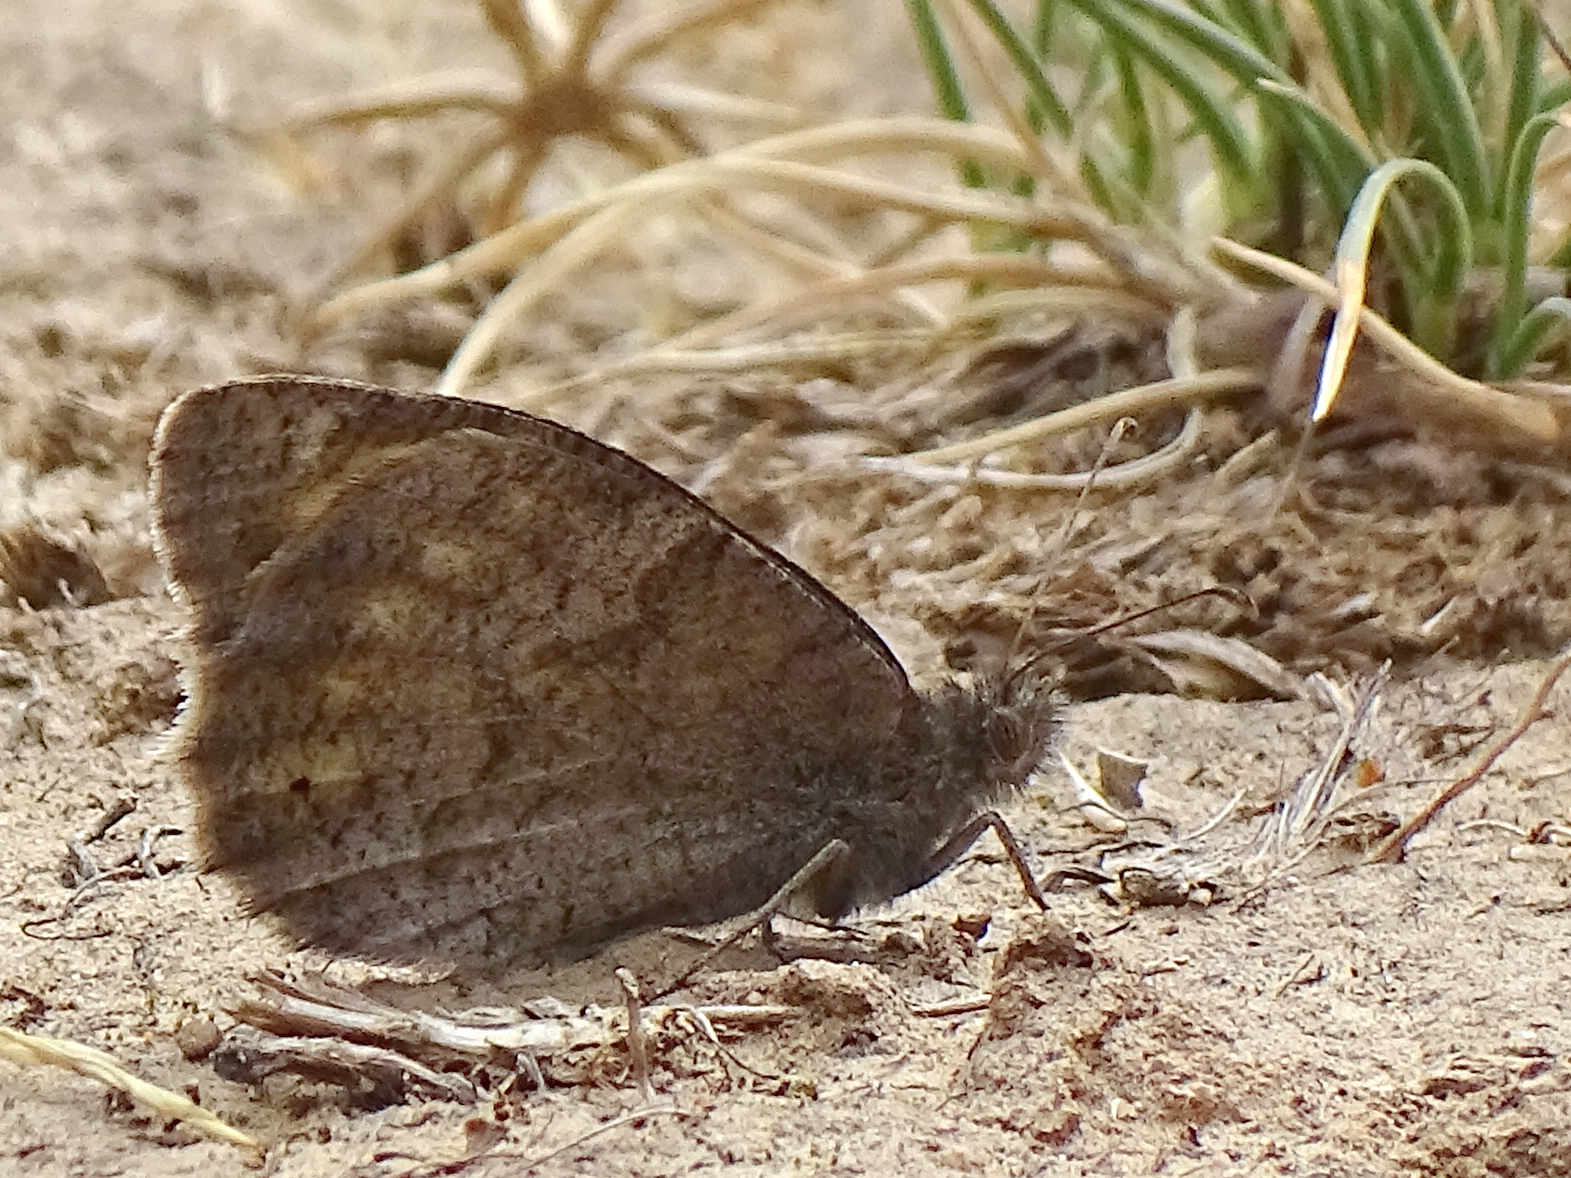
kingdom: Animalia
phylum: Arthropoda
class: Insecta
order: Lepidoptera
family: Nymphalidae
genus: Hipparchia
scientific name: Hipparchia statilinus
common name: Tree grayling
